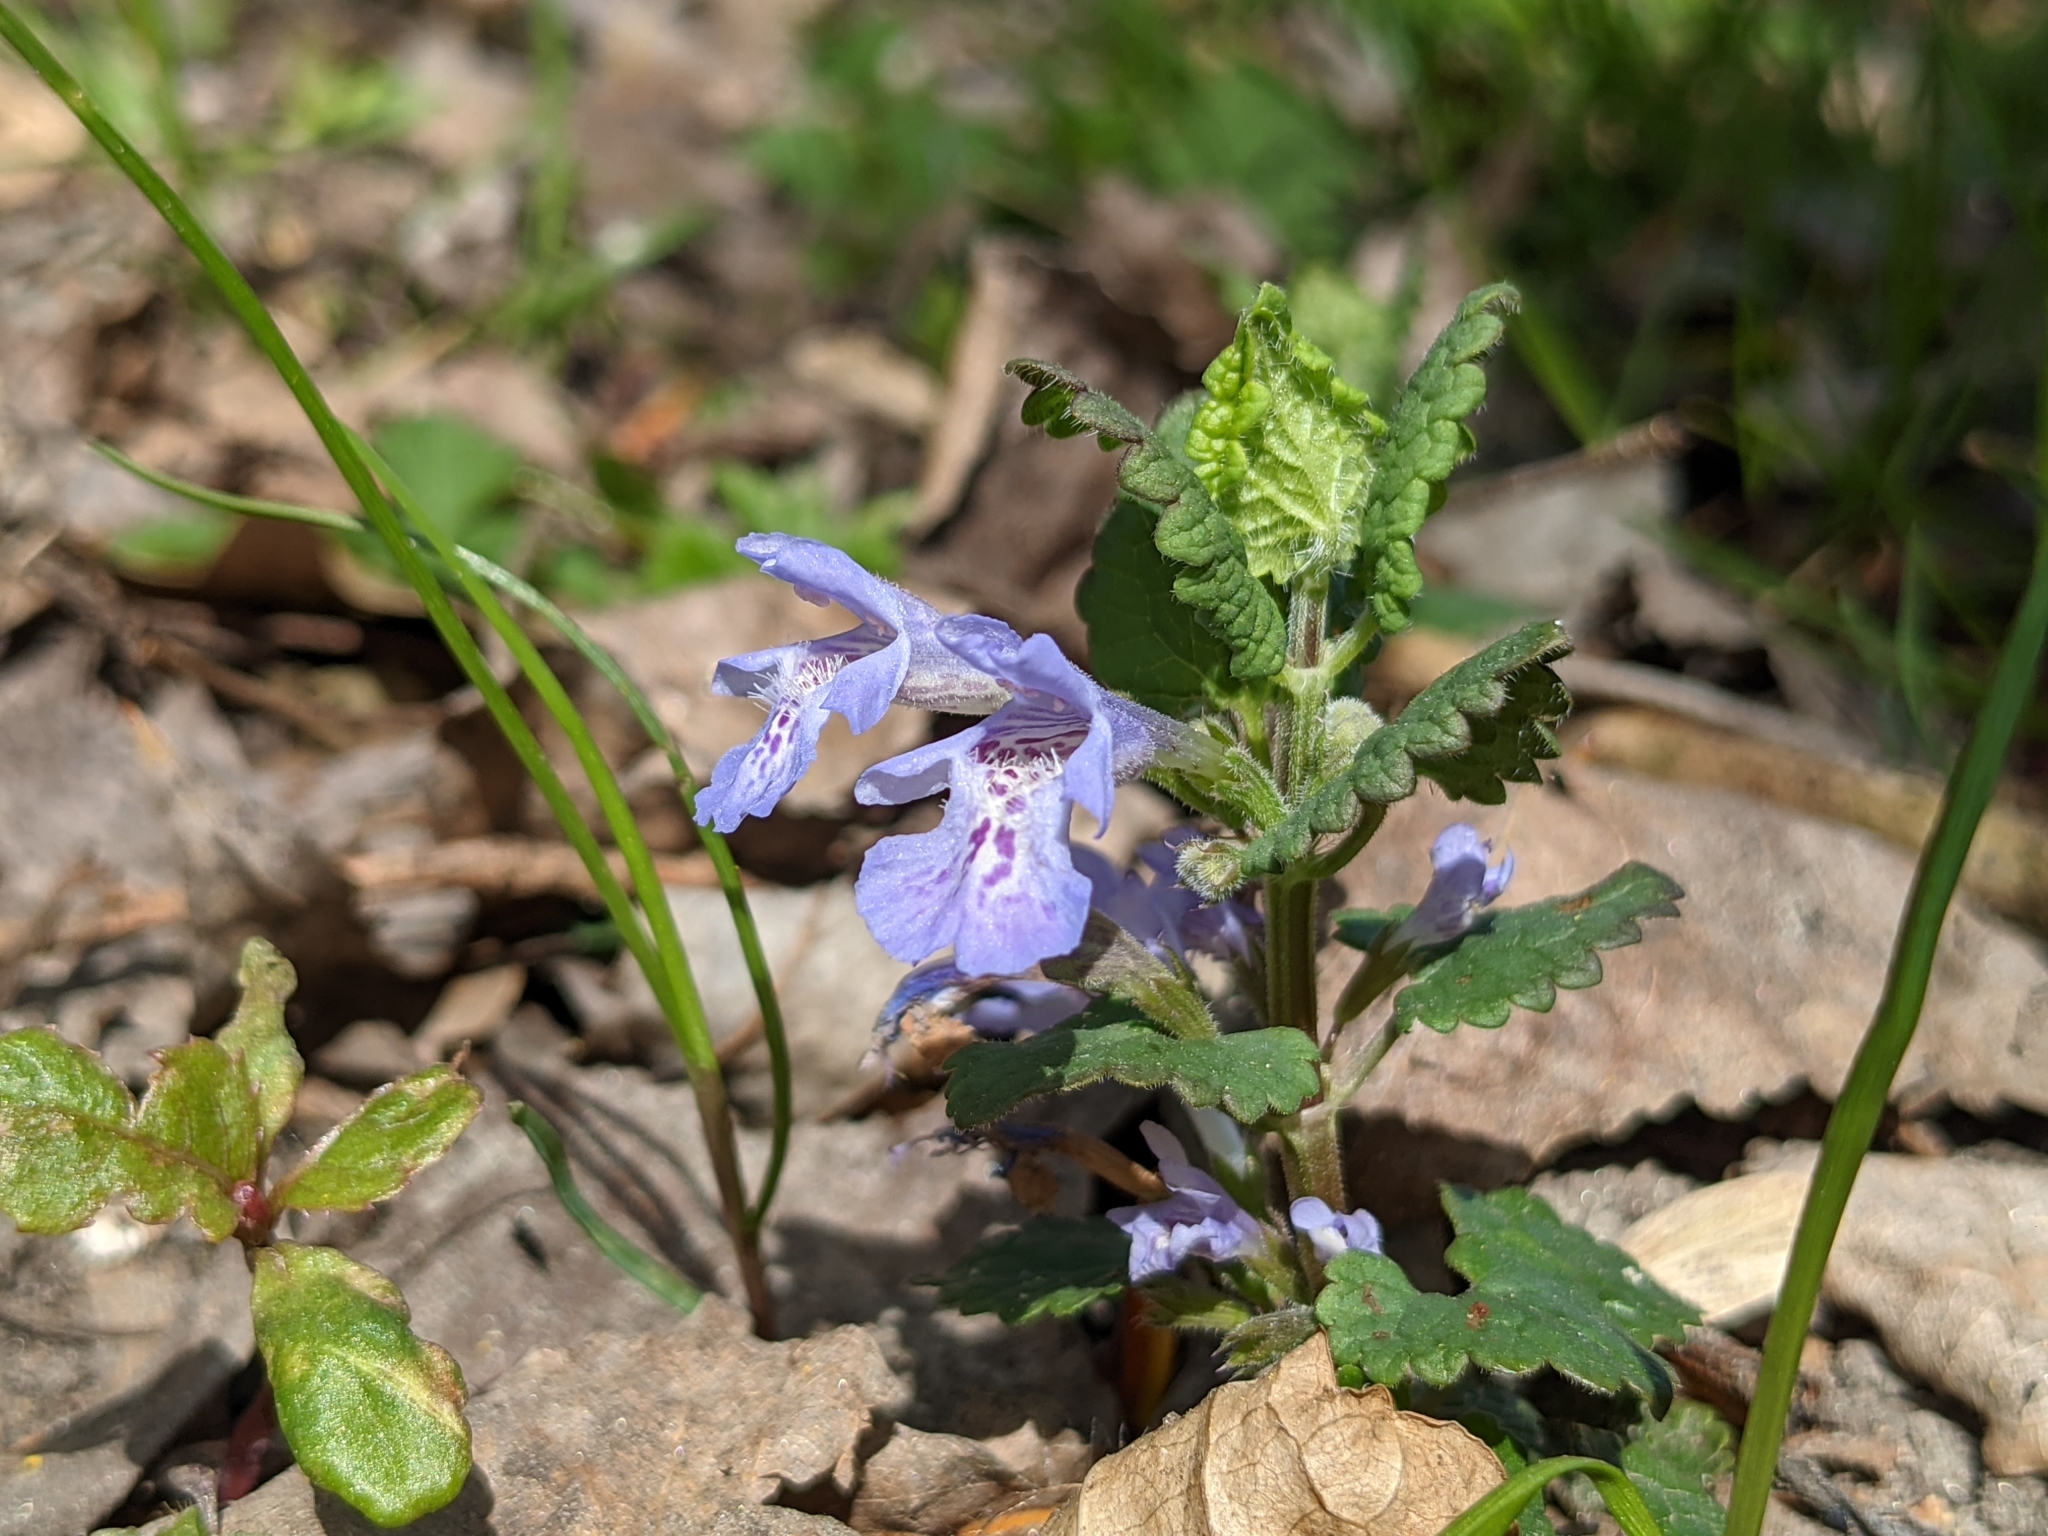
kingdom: Plantae
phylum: Tracheophyta
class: Magnoliopsida
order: Lamiales
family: Lamiaceae
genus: Glechoma
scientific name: Glechoma hederacea
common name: Ground ivy
